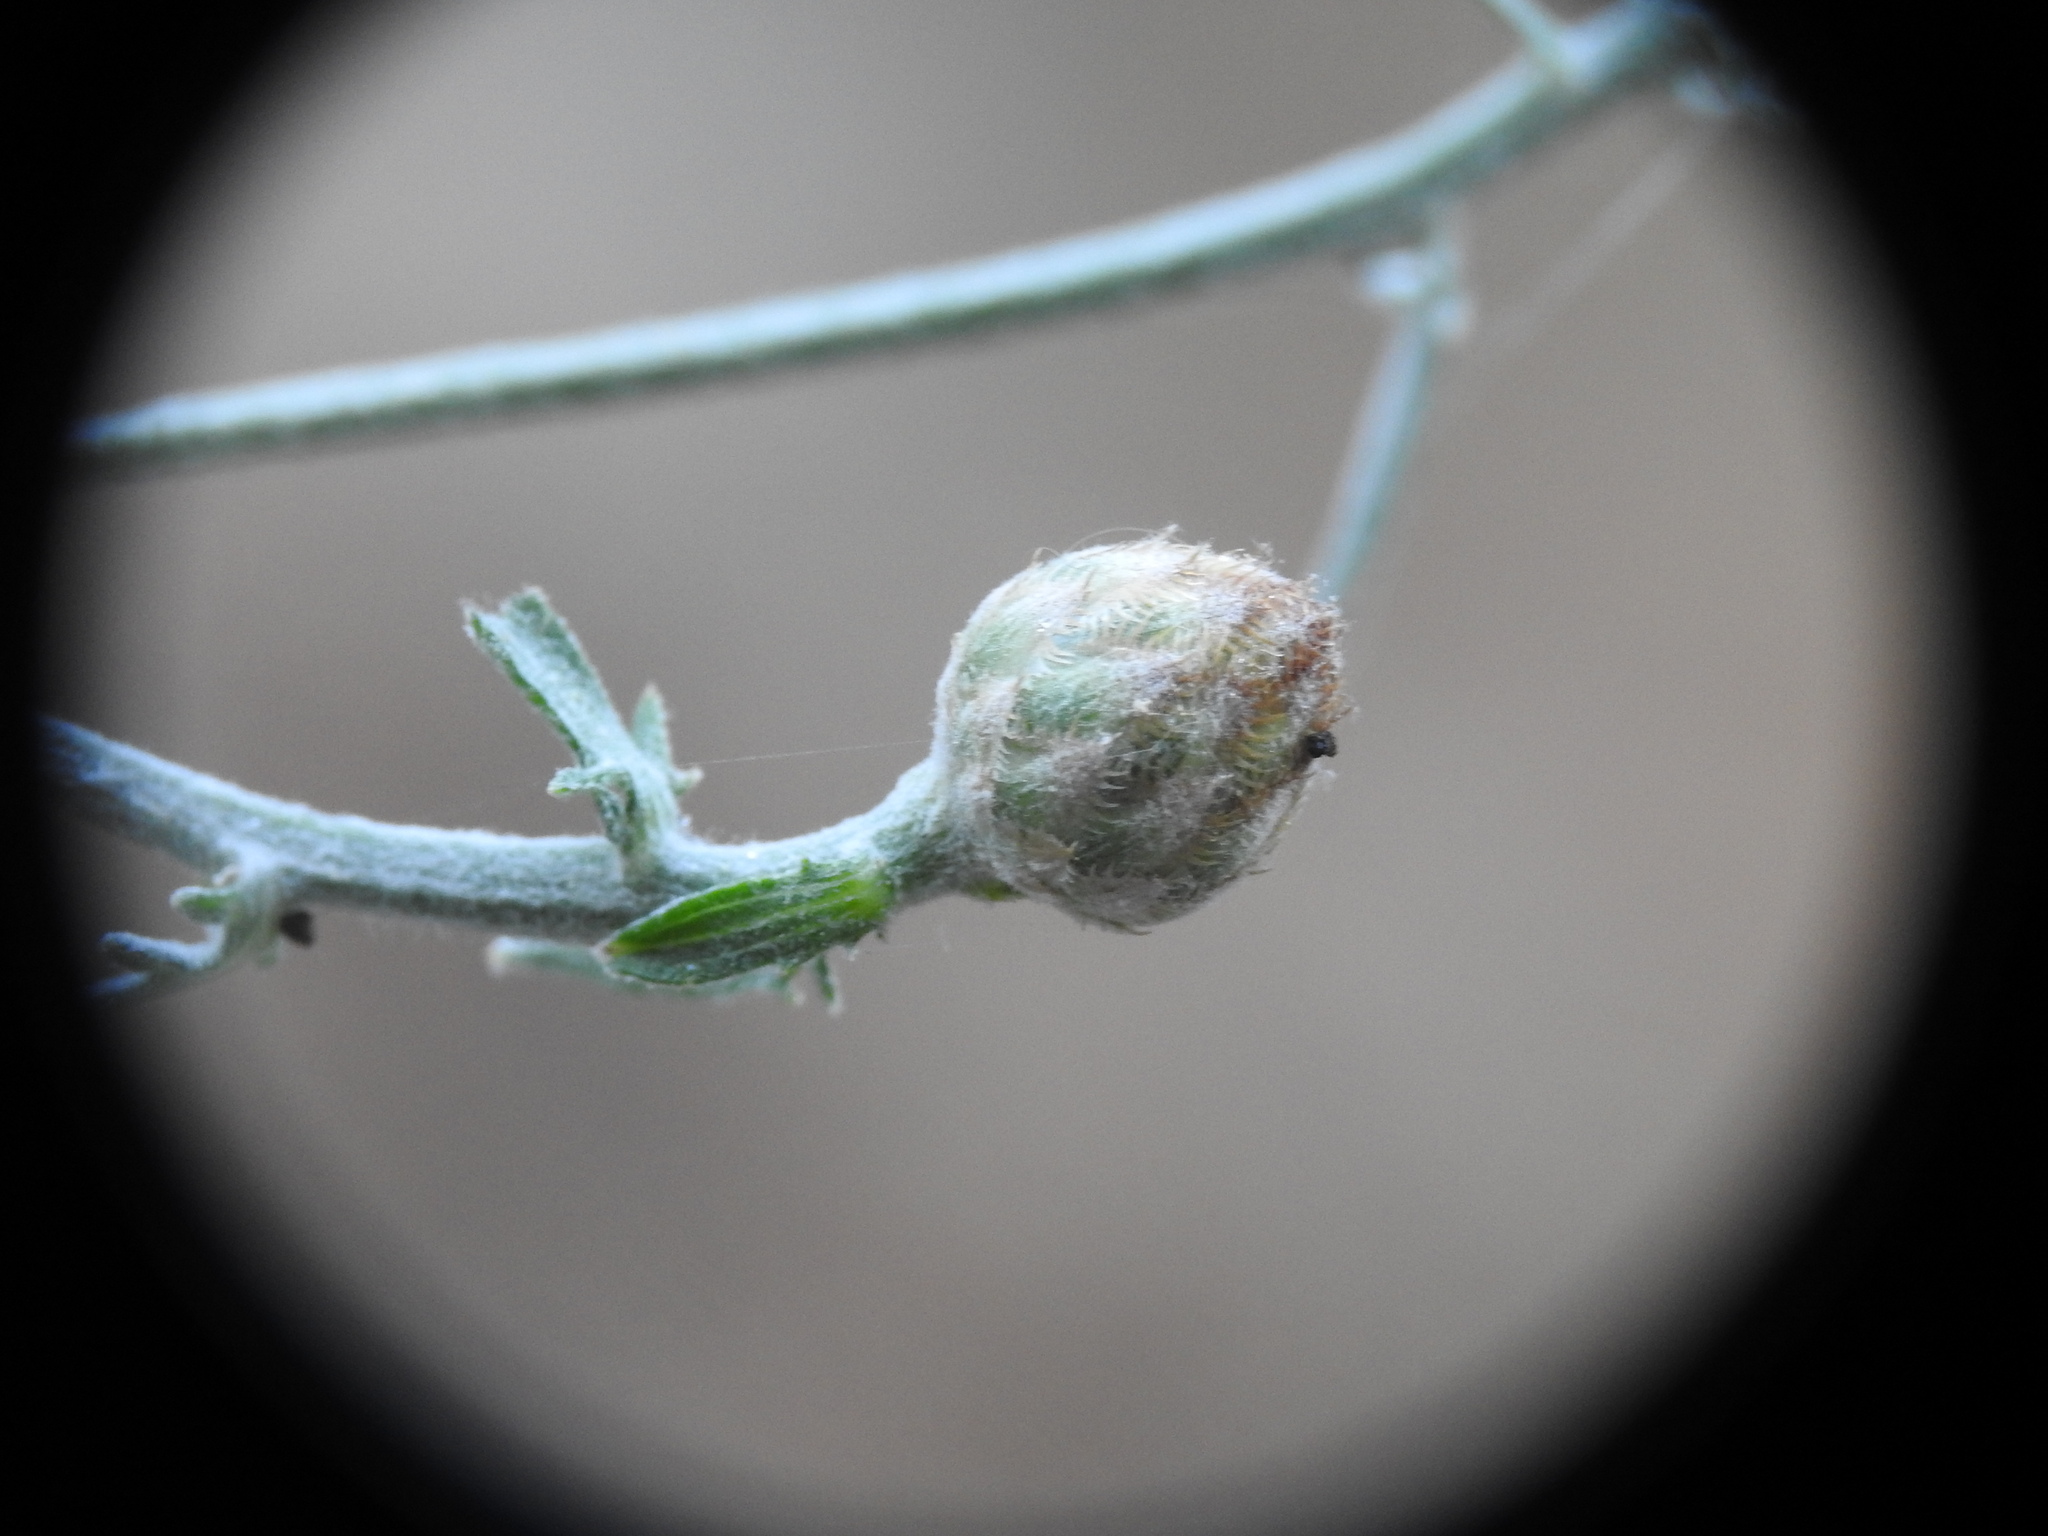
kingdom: Plantae
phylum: Tracheophyta
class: Magnoliopsida
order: Asterales
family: Asteraceae
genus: Centaurea
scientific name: Centaurea argentea
